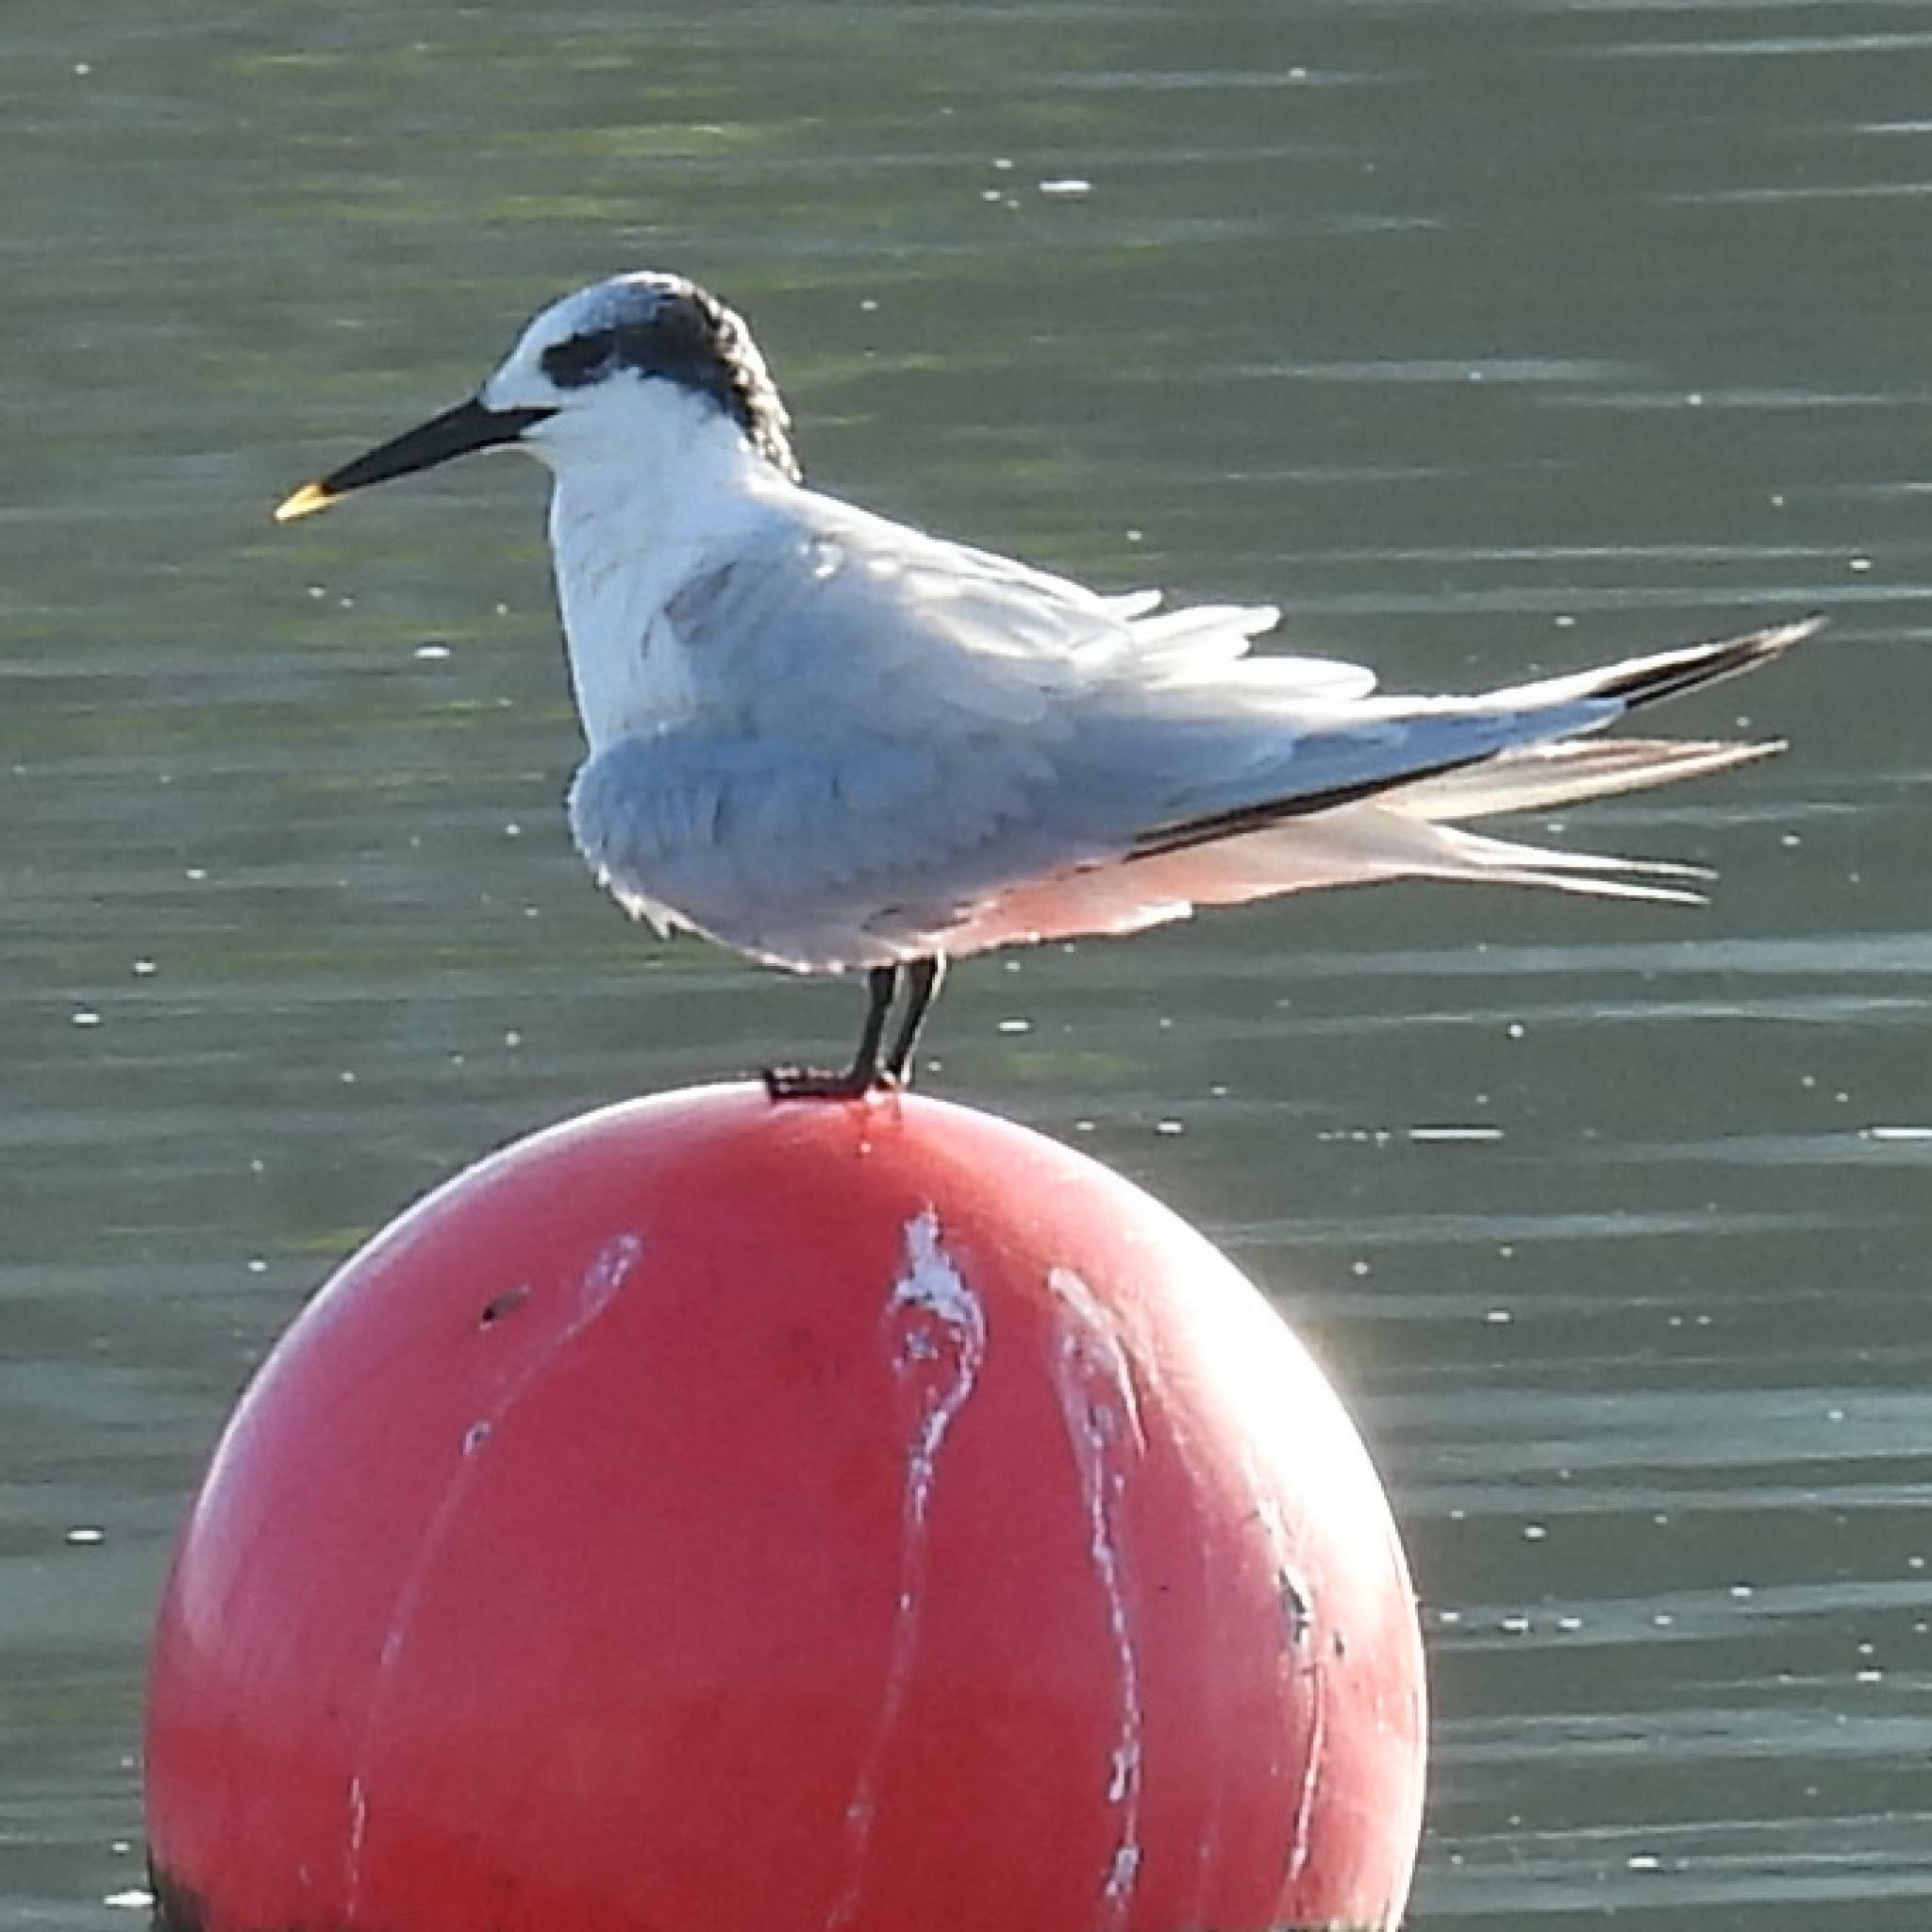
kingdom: Animalia
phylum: Chordata
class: Aves
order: Charadriiformes
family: Laridae
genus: Thalasseus
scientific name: Thalasseus sandvicensis
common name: Sandwich tern
